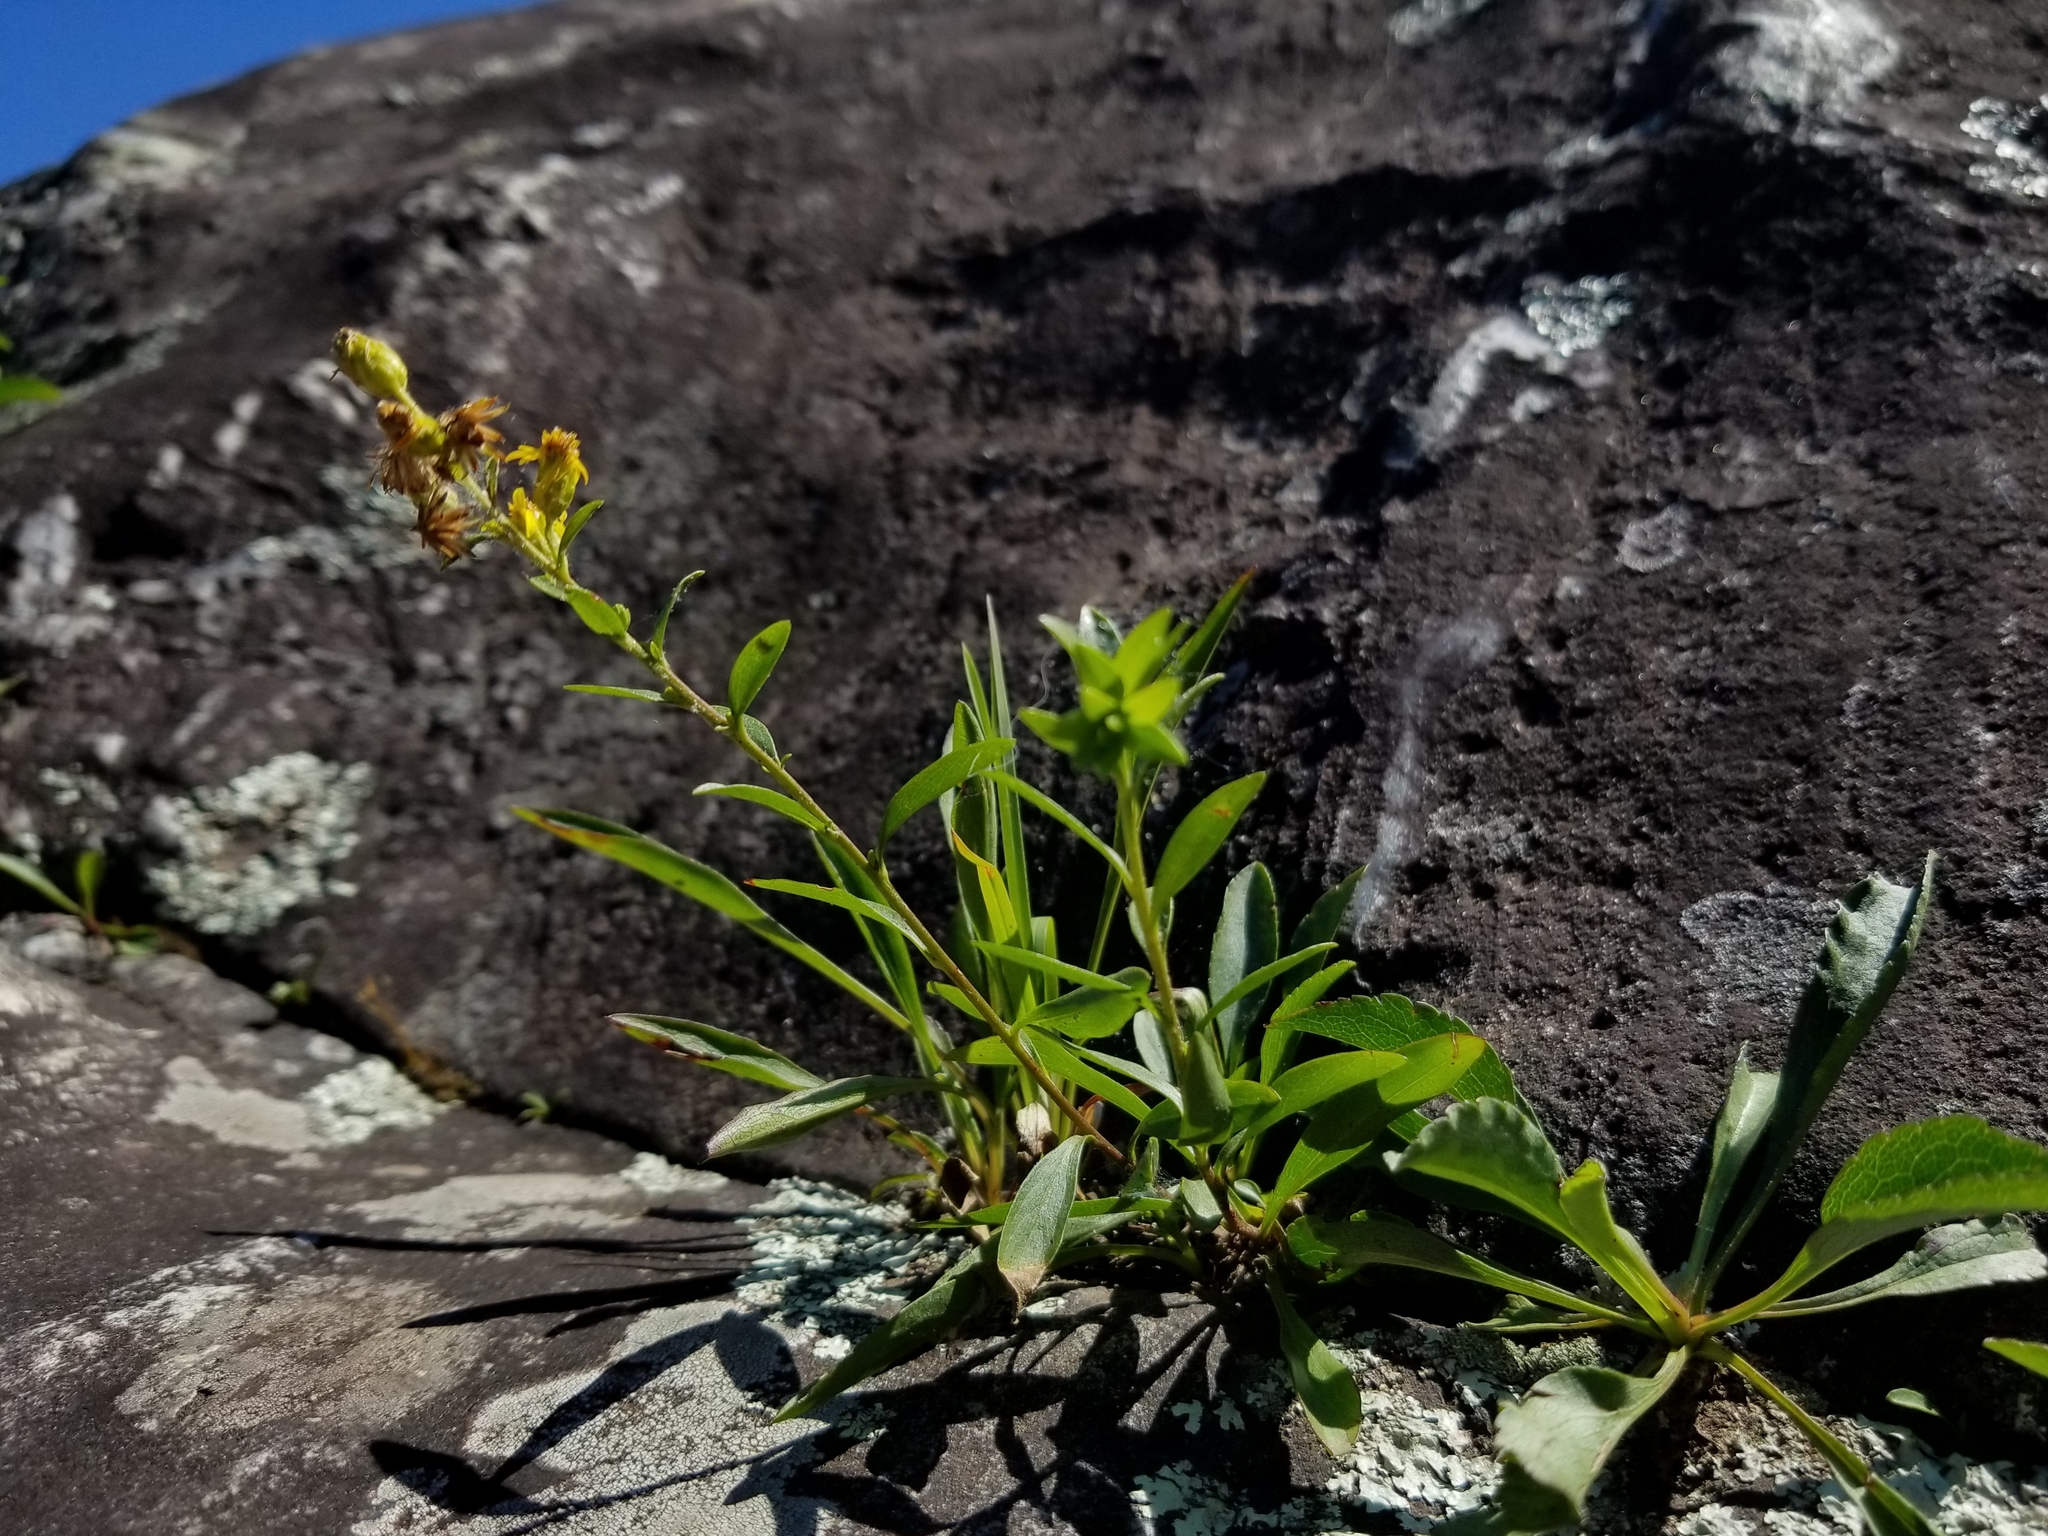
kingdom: Plantae
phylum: Tracheophyta
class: Magnoliopsida
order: Asterales
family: Asteraceae
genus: Solidago
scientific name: Solidago racemosa
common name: Lake ontario goldenrod
